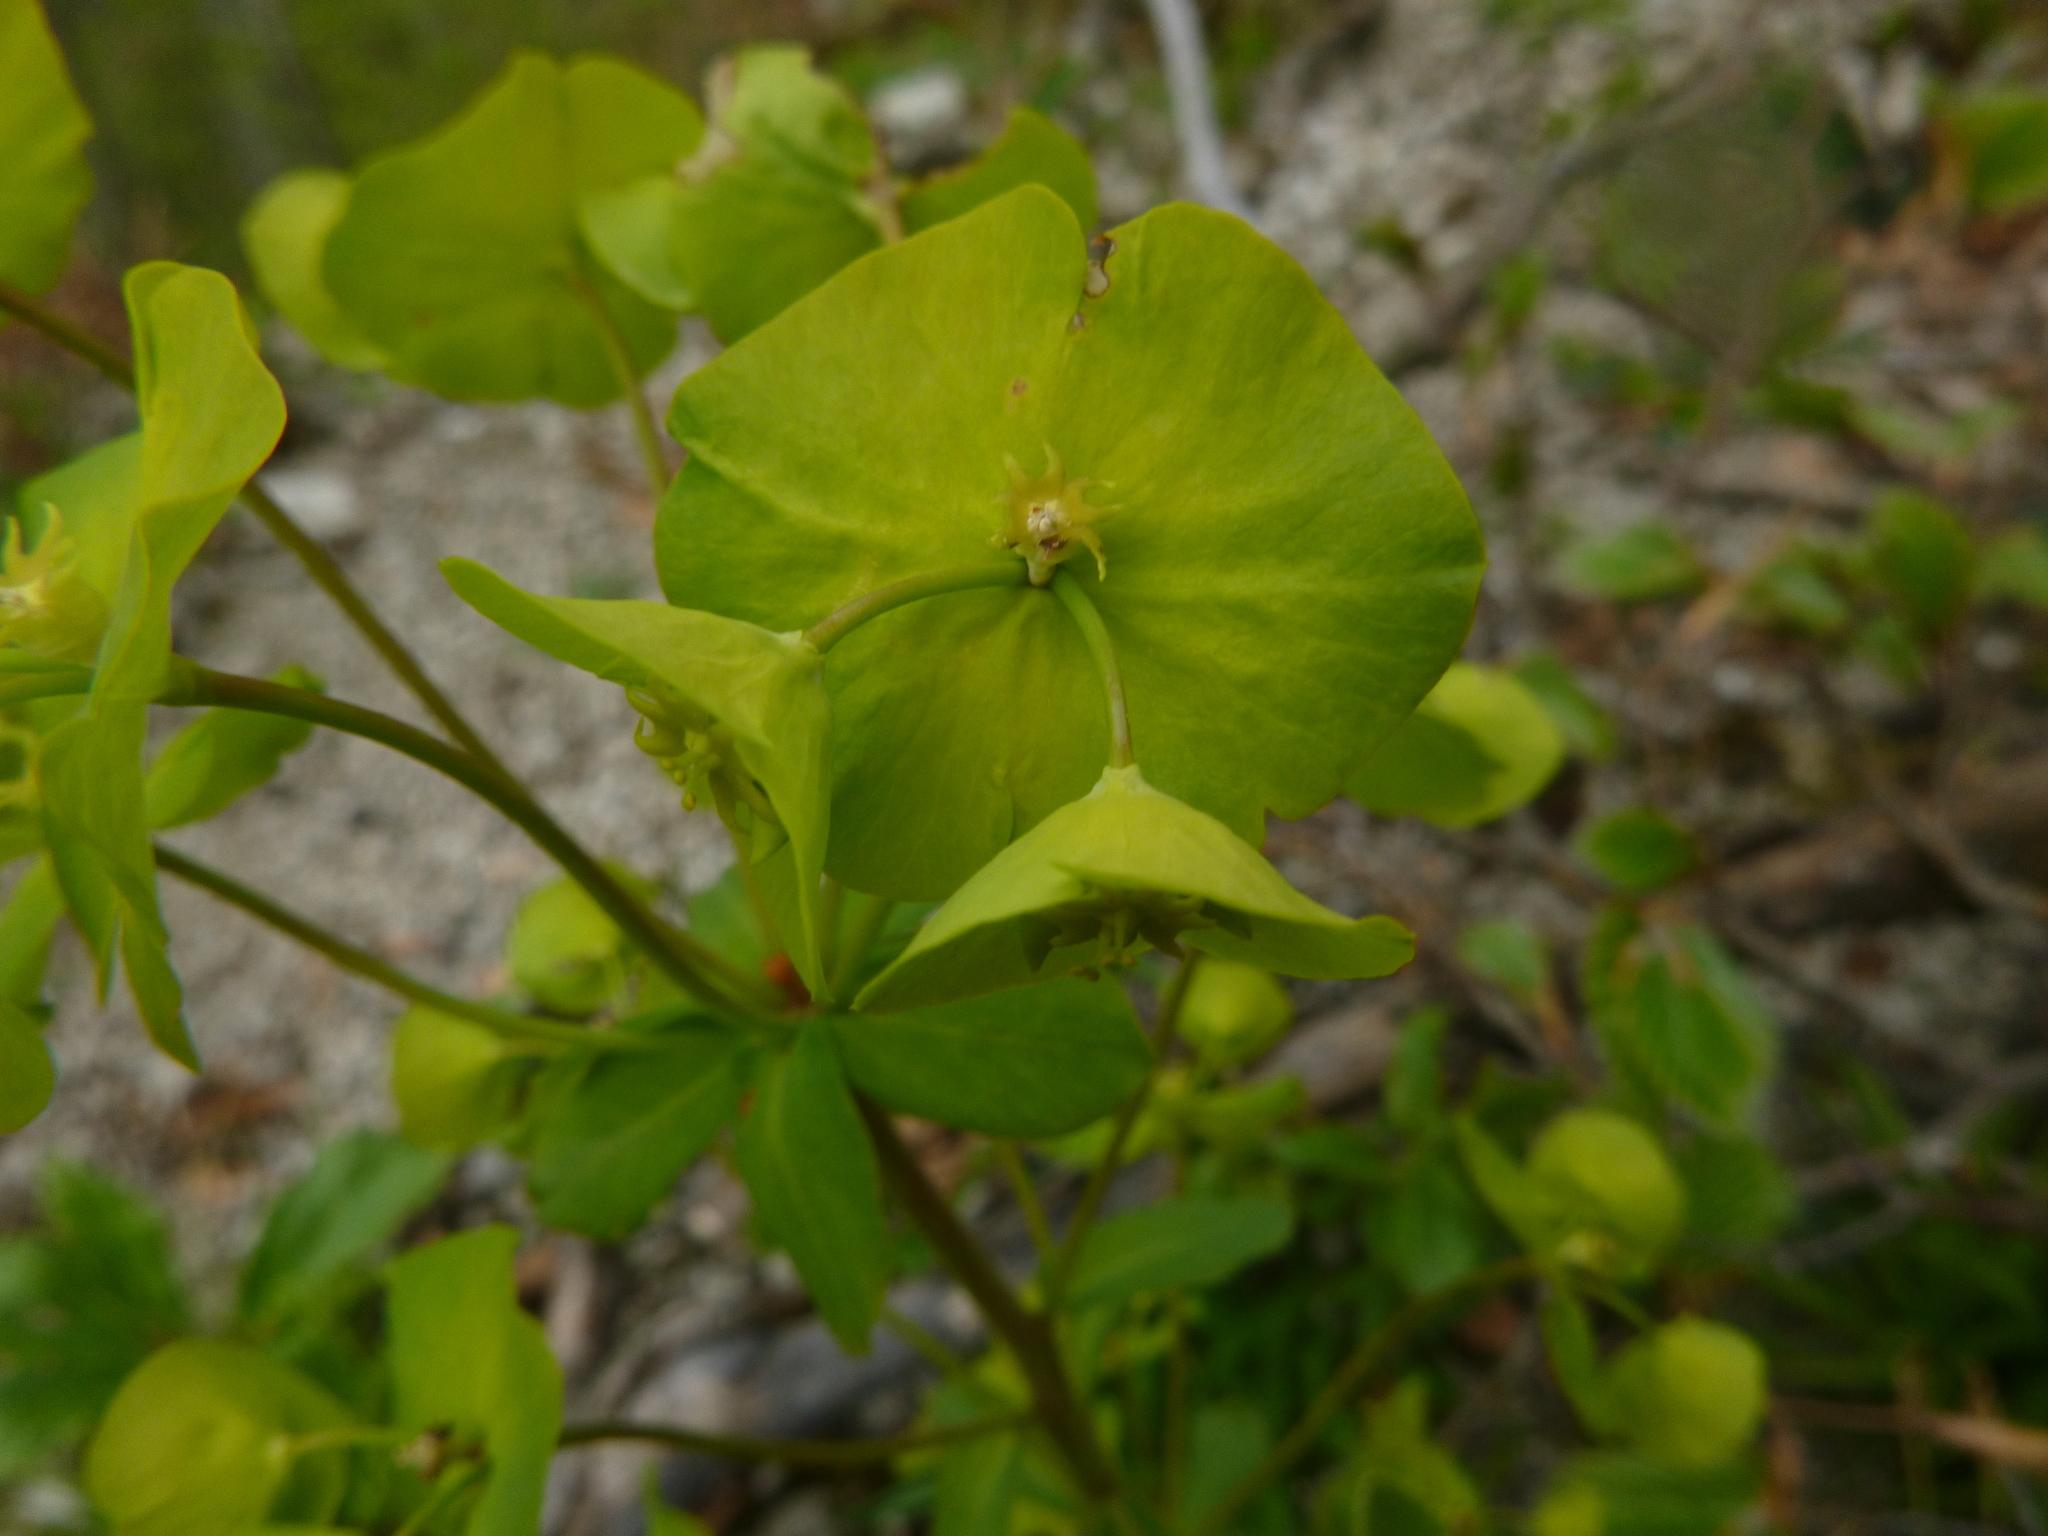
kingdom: Plantae
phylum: Tracheophyta
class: Magnoliopsida
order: Malpighiales
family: Euphorbiaceae
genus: Euphorbia
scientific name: Euphorbia amygdaloides
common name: Wood spurge
